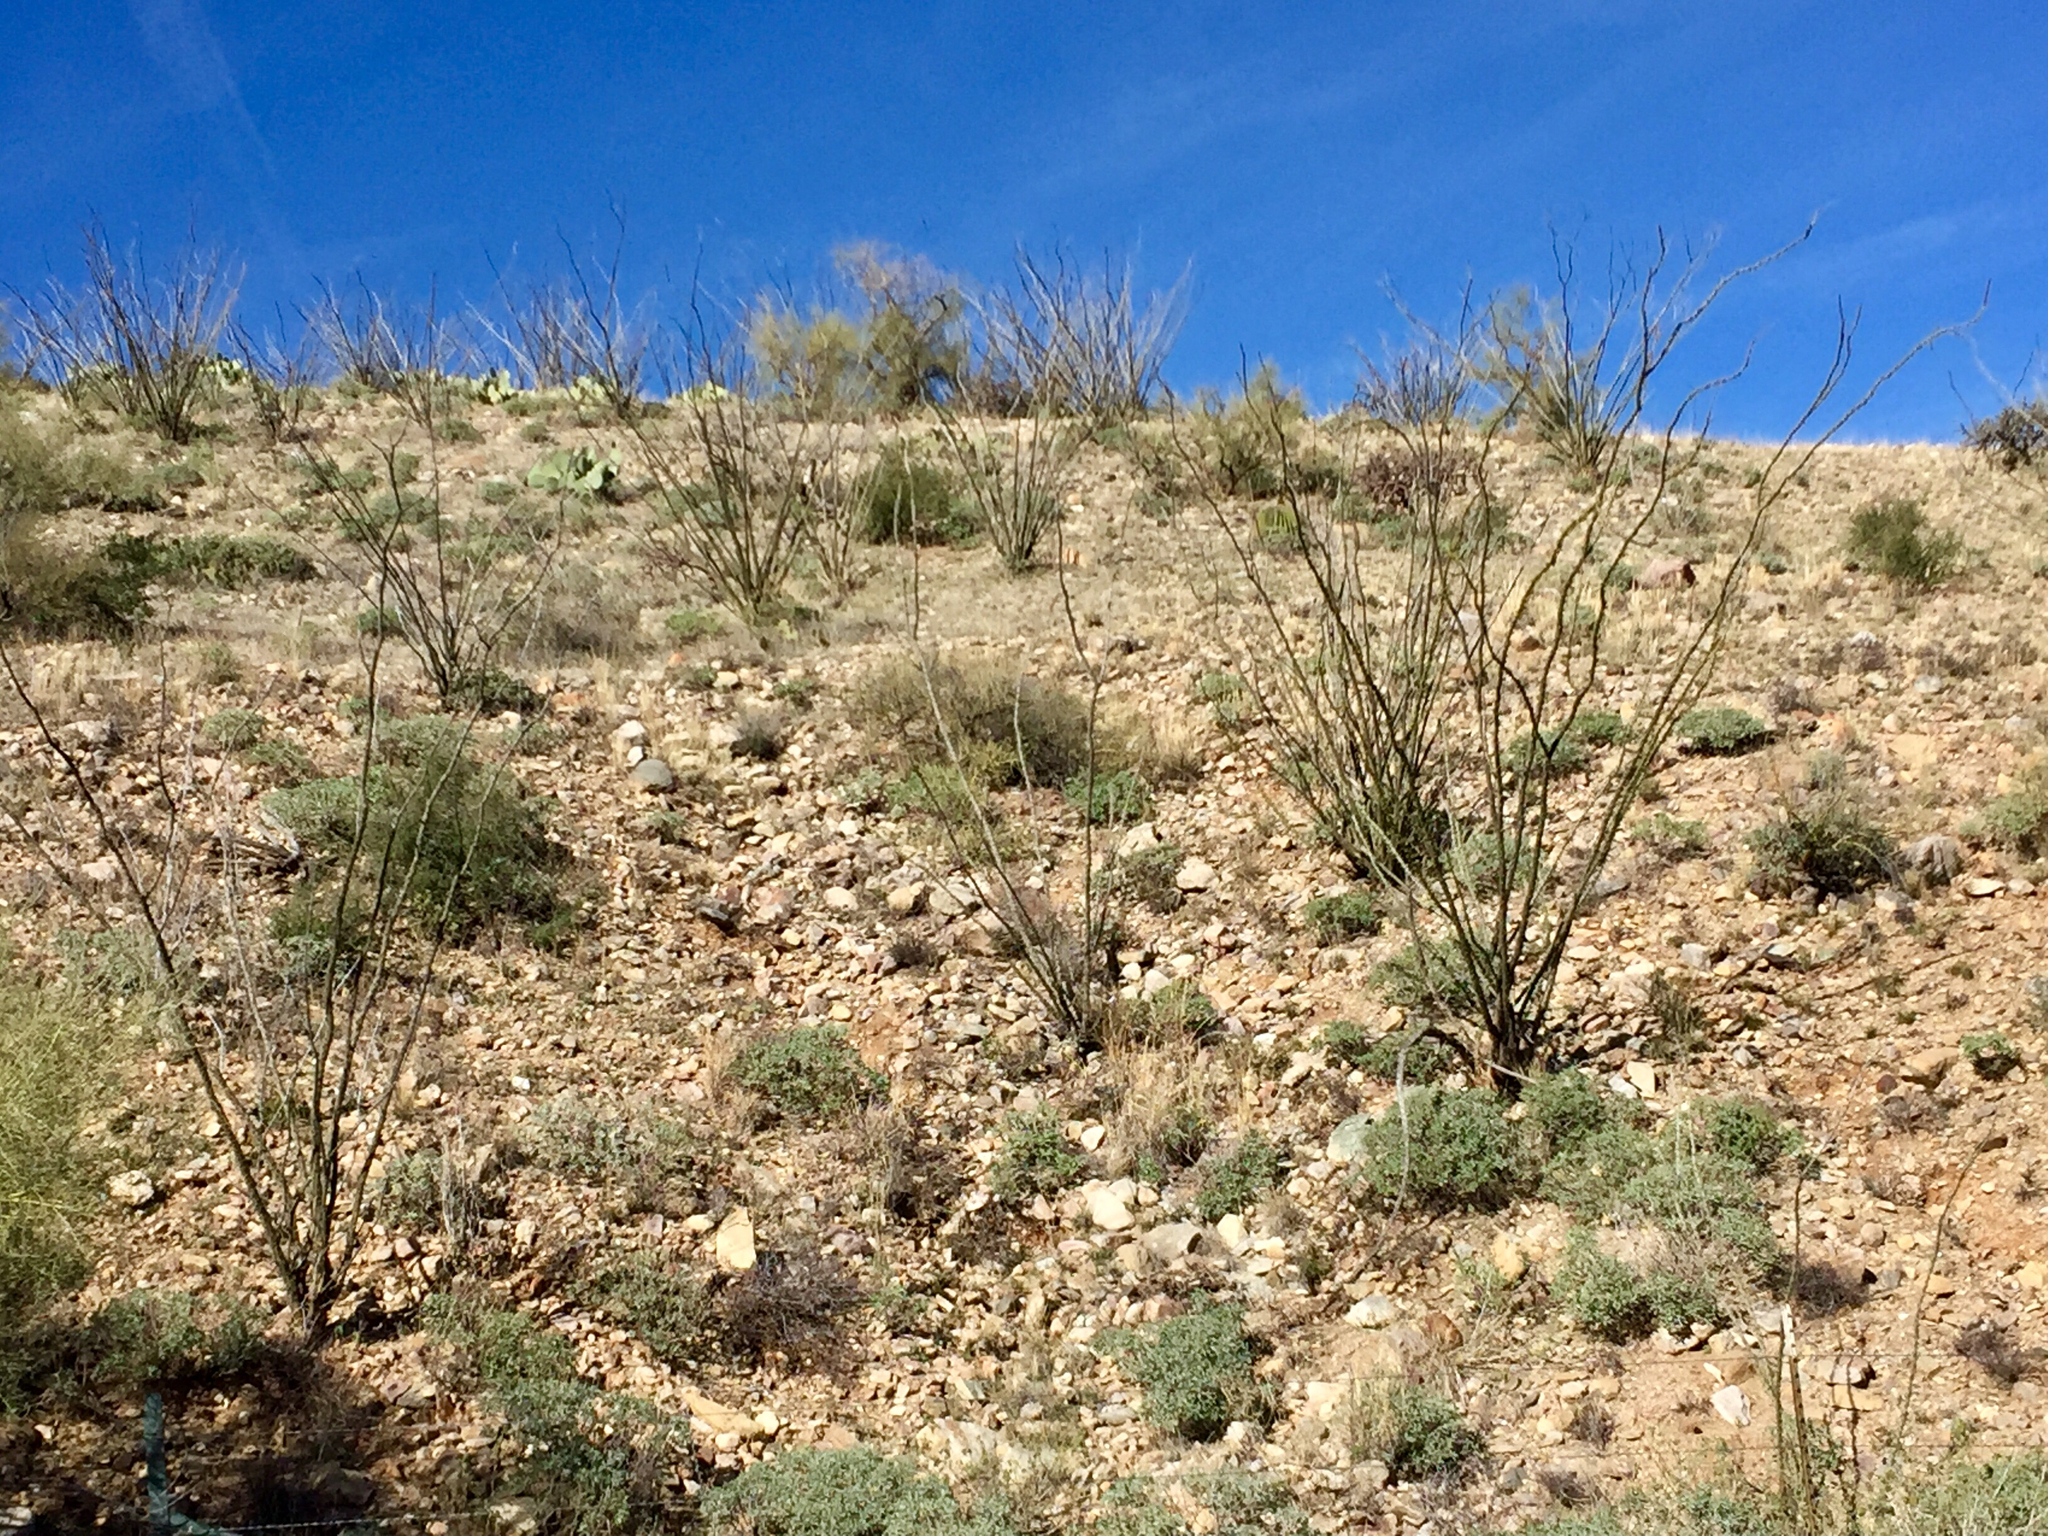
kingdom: Plantae
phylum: Tracheophyta
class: Magnoliopsida
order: Ericales
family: Fouquieriaceae
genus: Fouquieria
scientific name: Fouquieria splendens
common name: Vine-cactus
